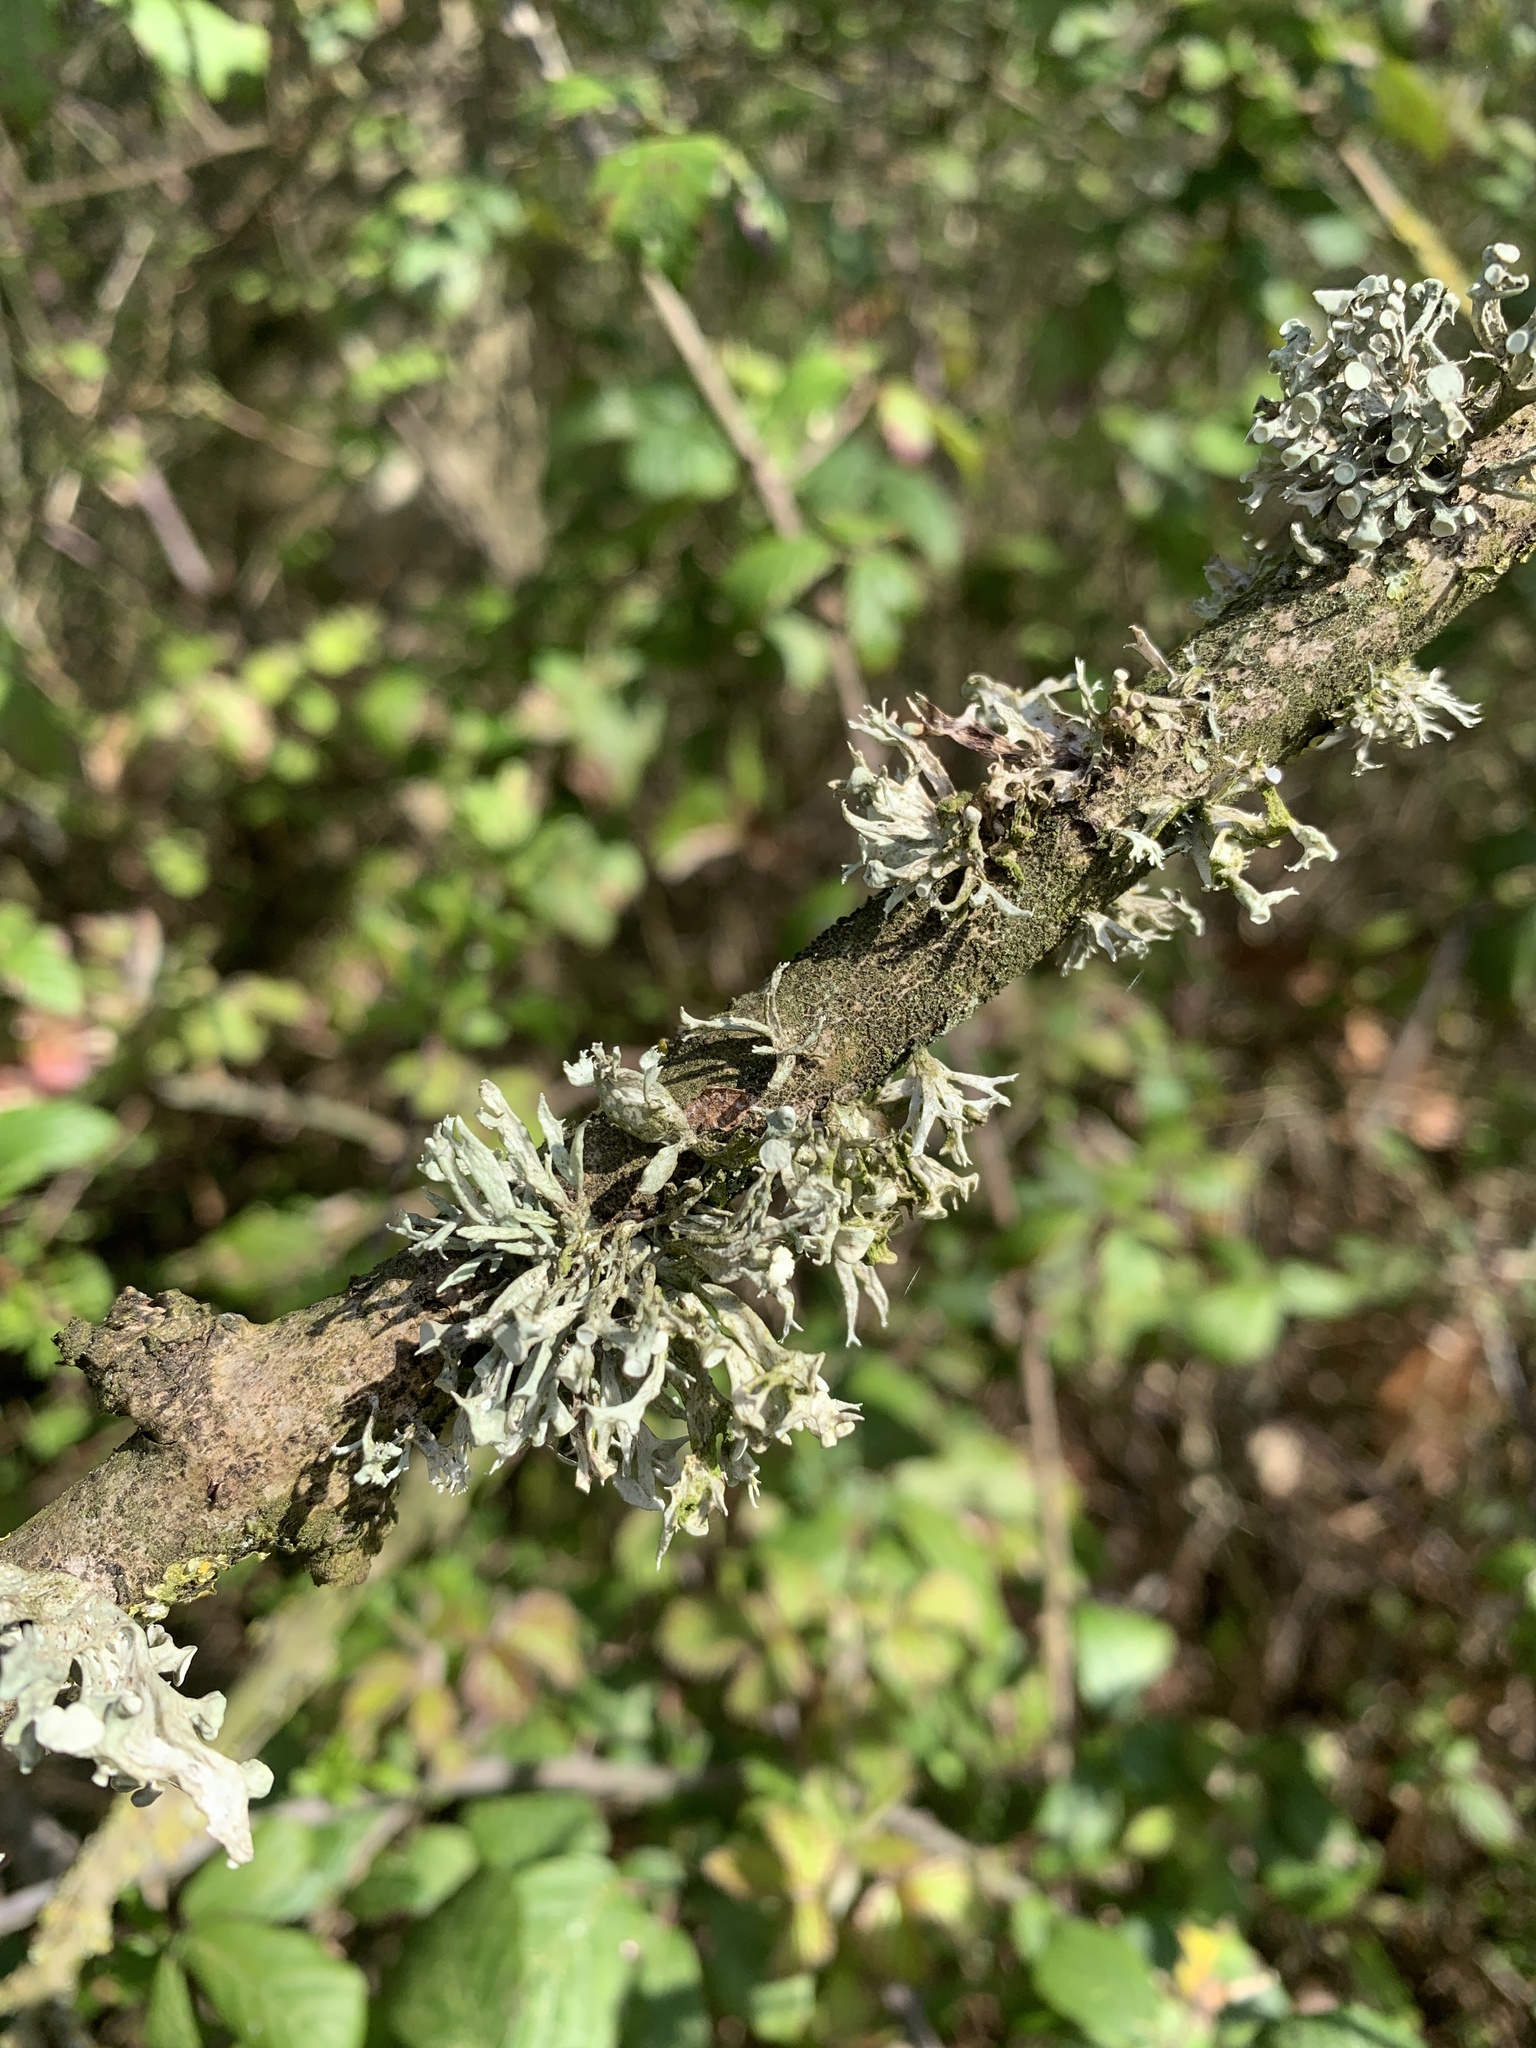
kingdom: Fungi
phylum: Ascomycota
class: Lecanoromycetes
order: Lecanorales
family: Ramalinaceae
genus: Ramalina
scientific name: Ramalina fastigiata
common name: Dotted ribbon lichen
